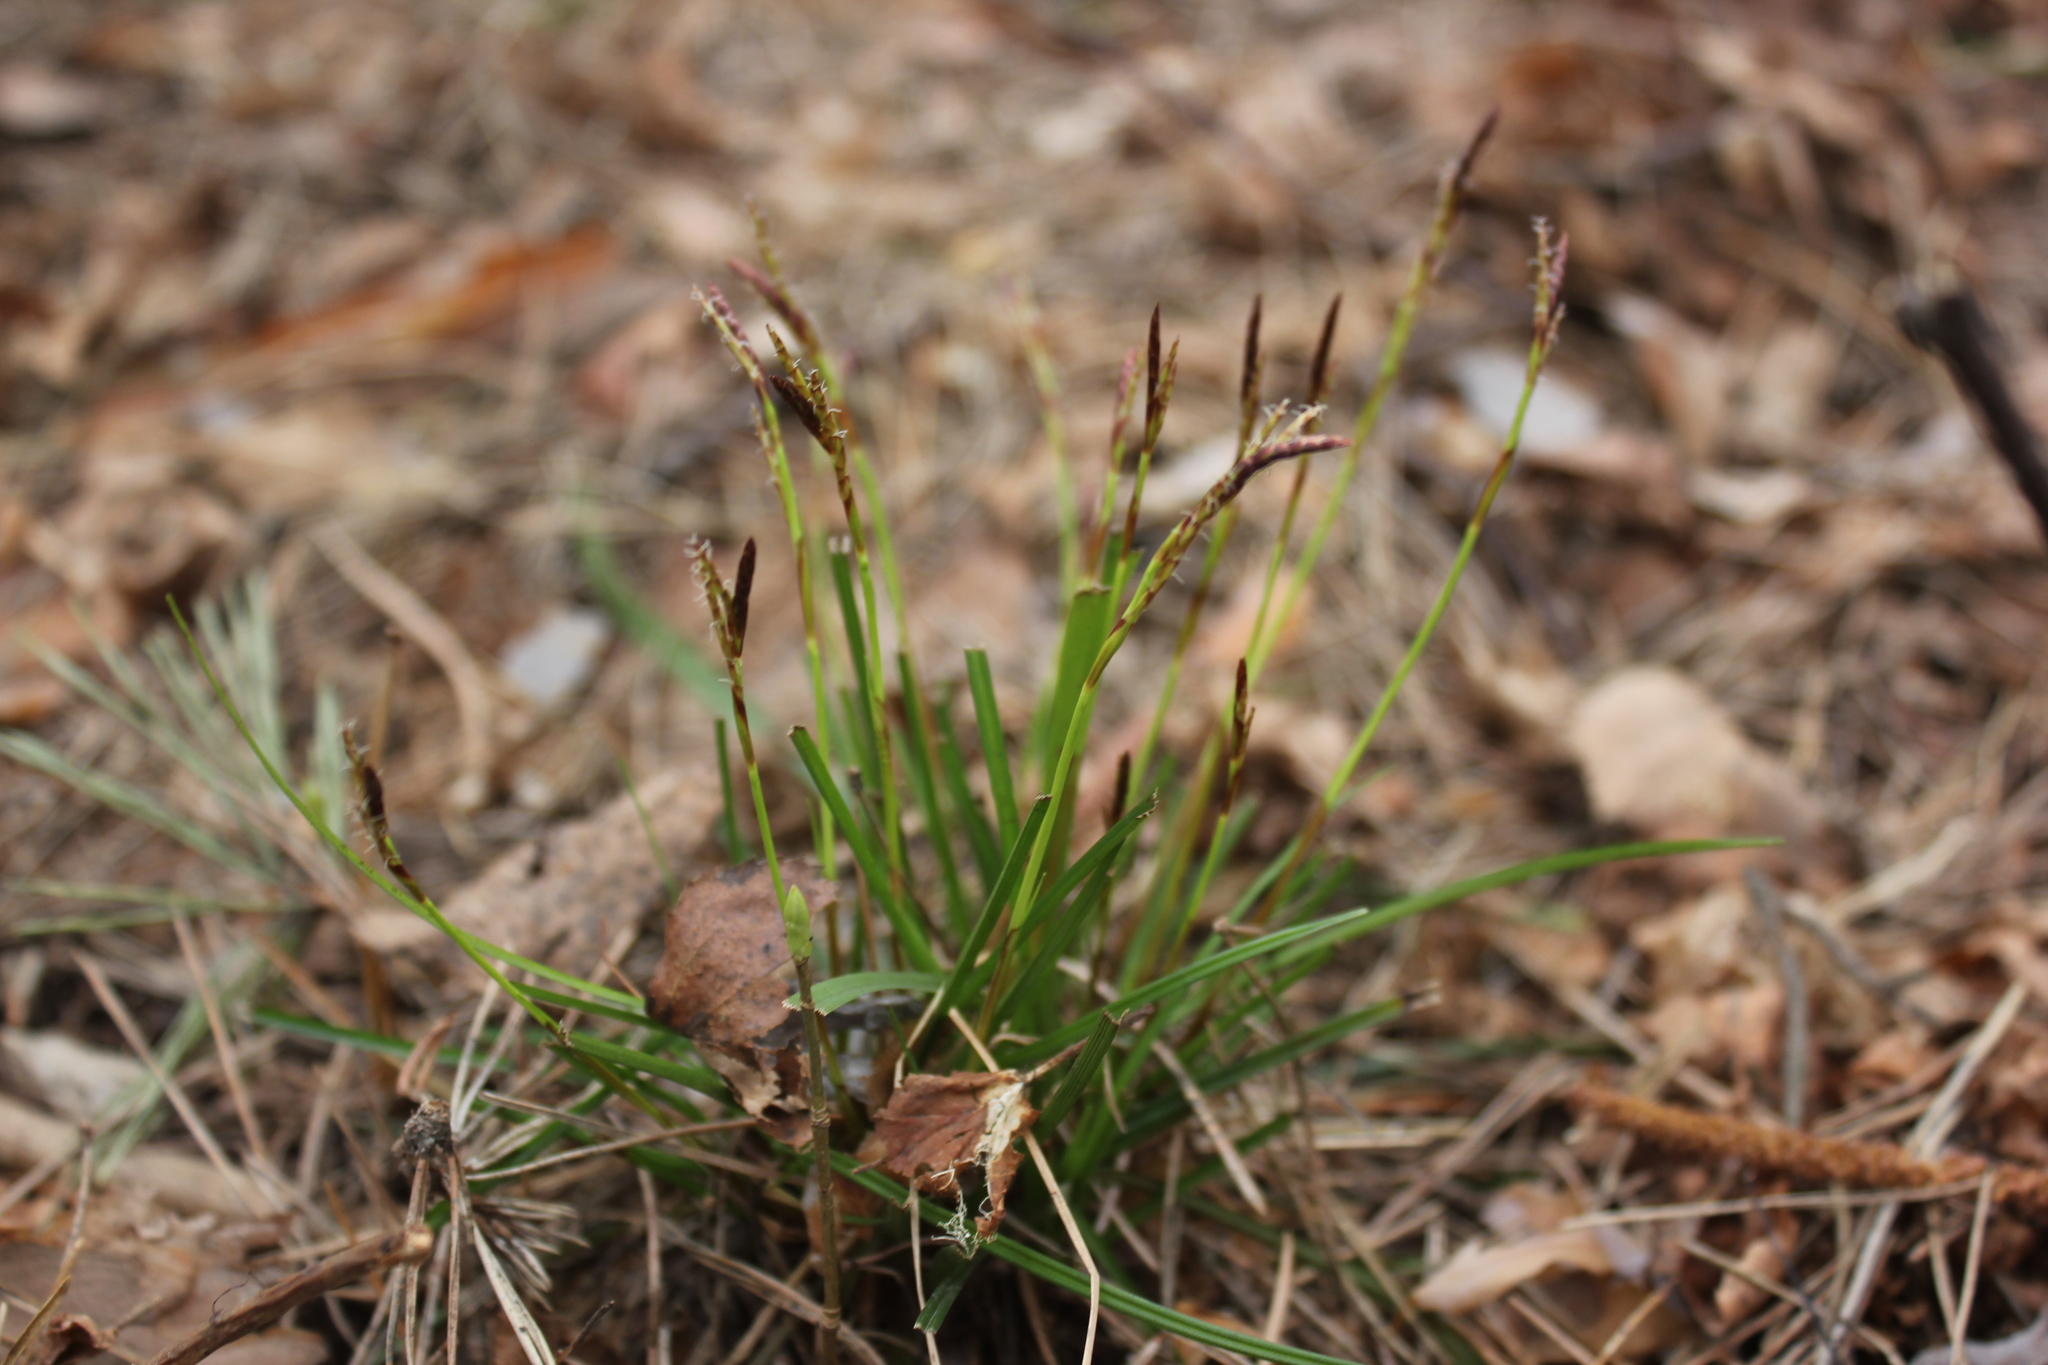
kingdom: Plantae
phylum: Tracheophyta
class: Liliopsida
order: Poales
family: Cyperaceae
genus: Carex
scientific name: Carex digitata
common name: Fingered sedge
